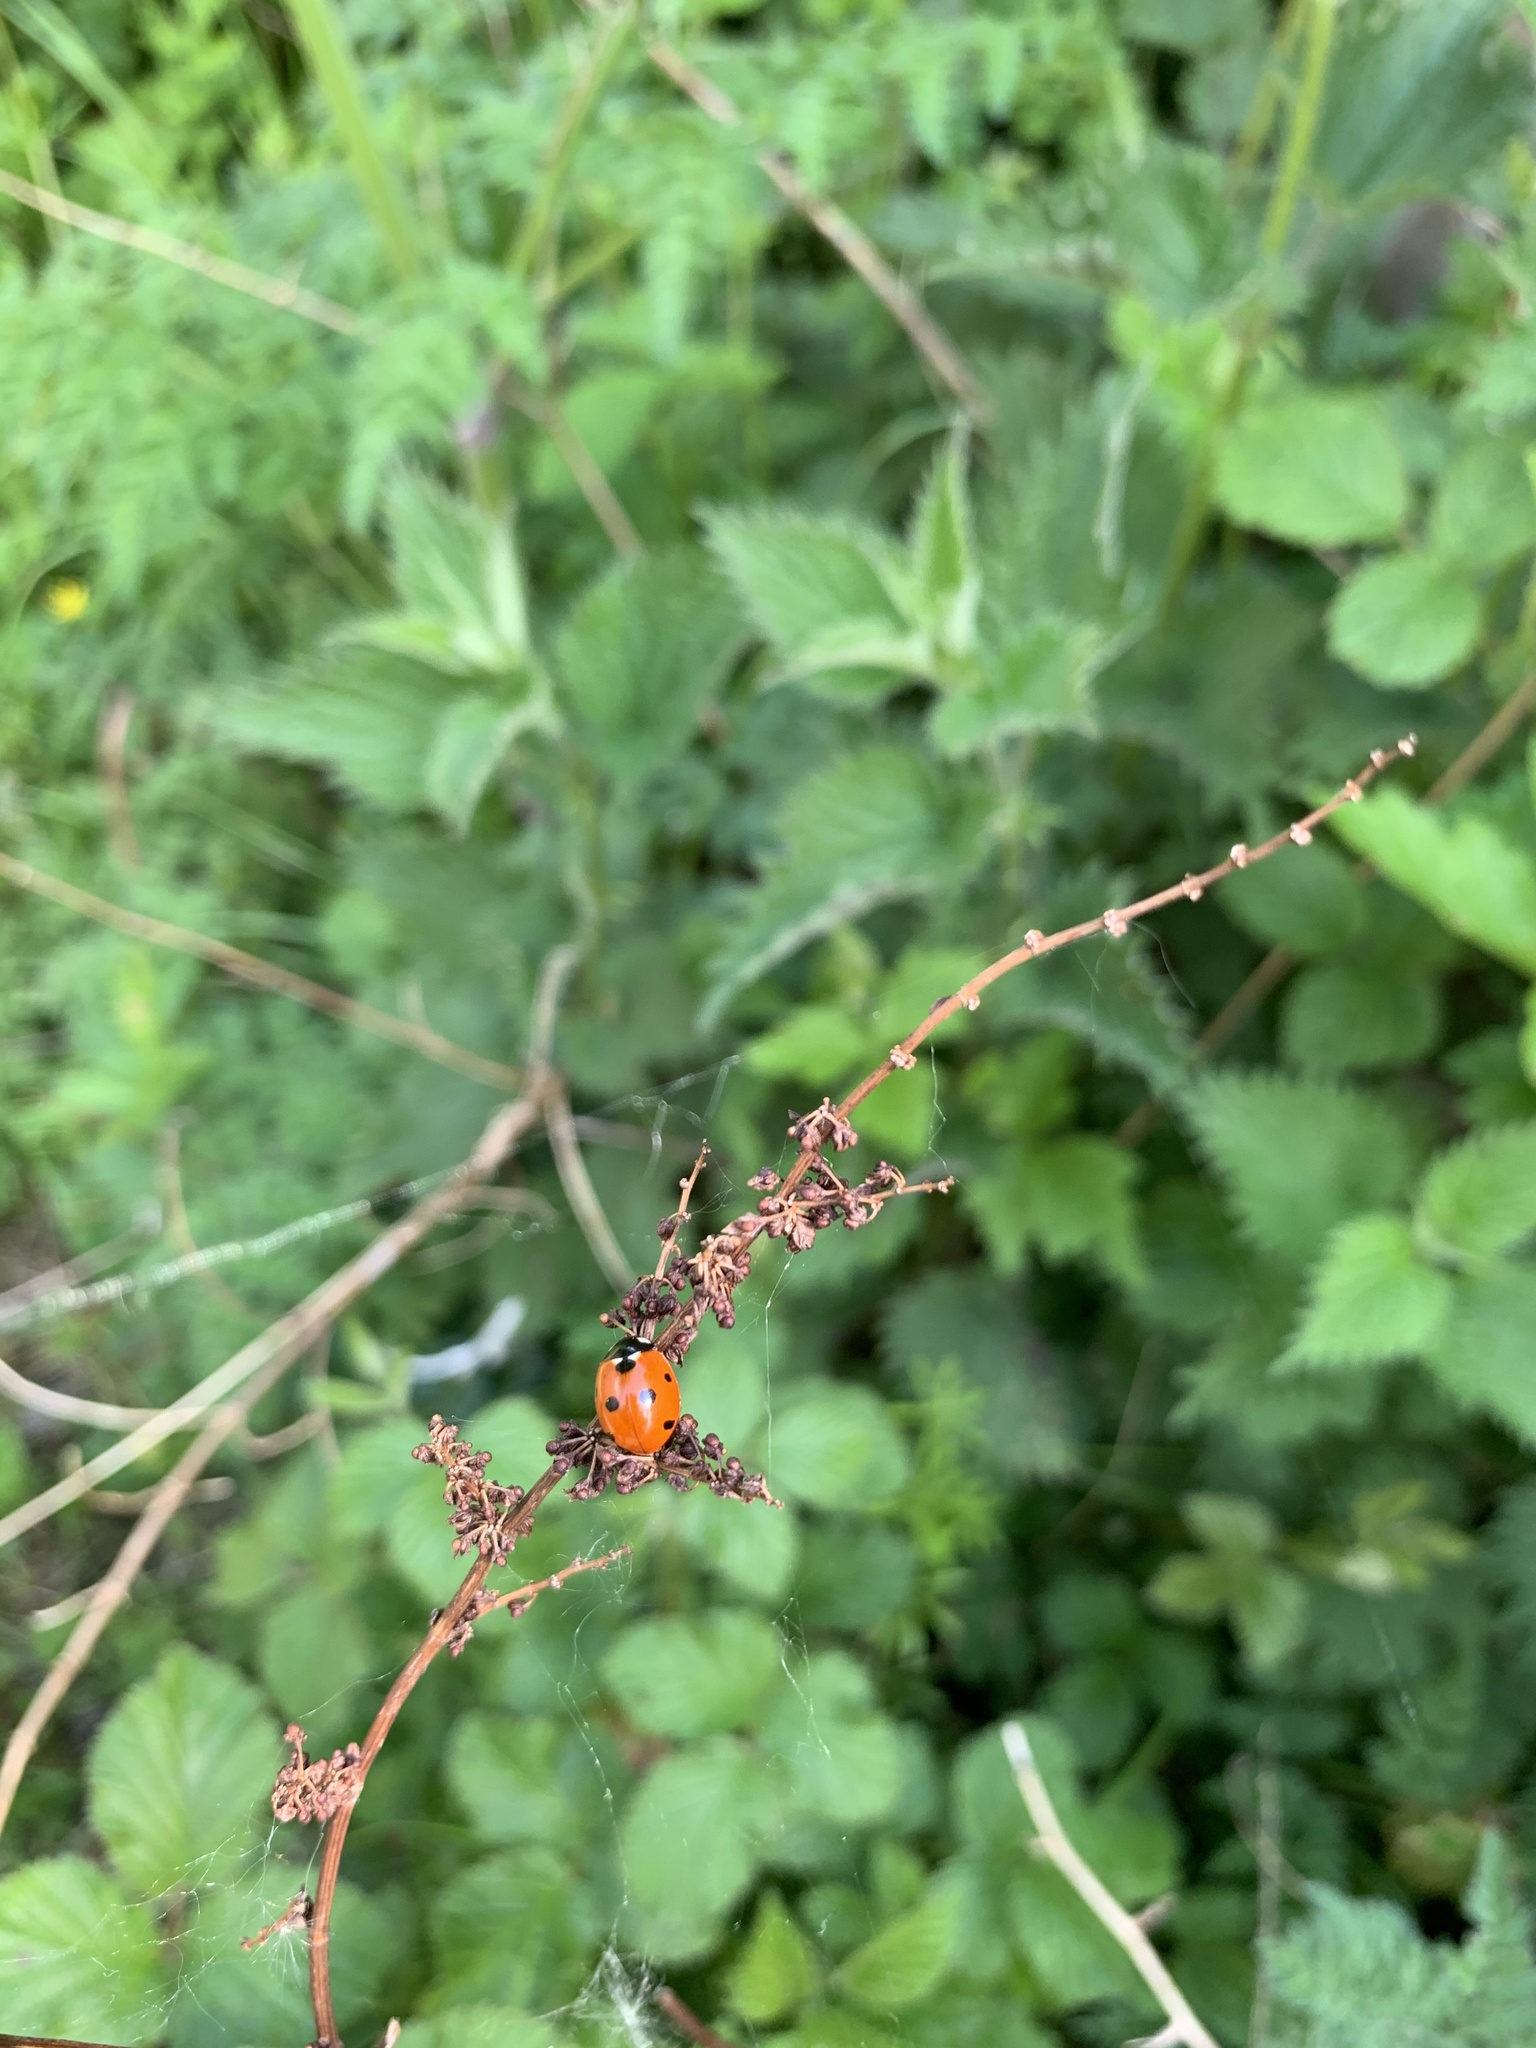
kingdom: Animalia
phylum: Arthropoda
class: Insecta
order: Coleoptera
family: Coccinellidae
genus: Coccinella
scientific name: Coccinella septempunctata
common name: Sevenspotted lady beetle
